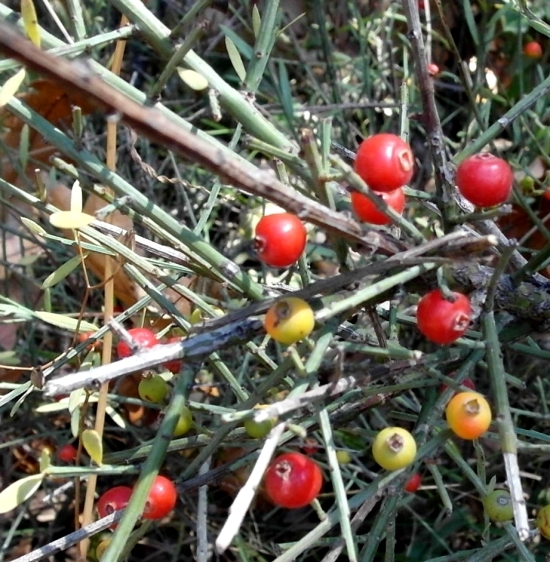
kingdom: Plantae
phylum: Tracheophyta
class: Magnoliopsida
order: Santalales
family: Santalaceae
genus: Osyris
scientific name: Osyris alba
